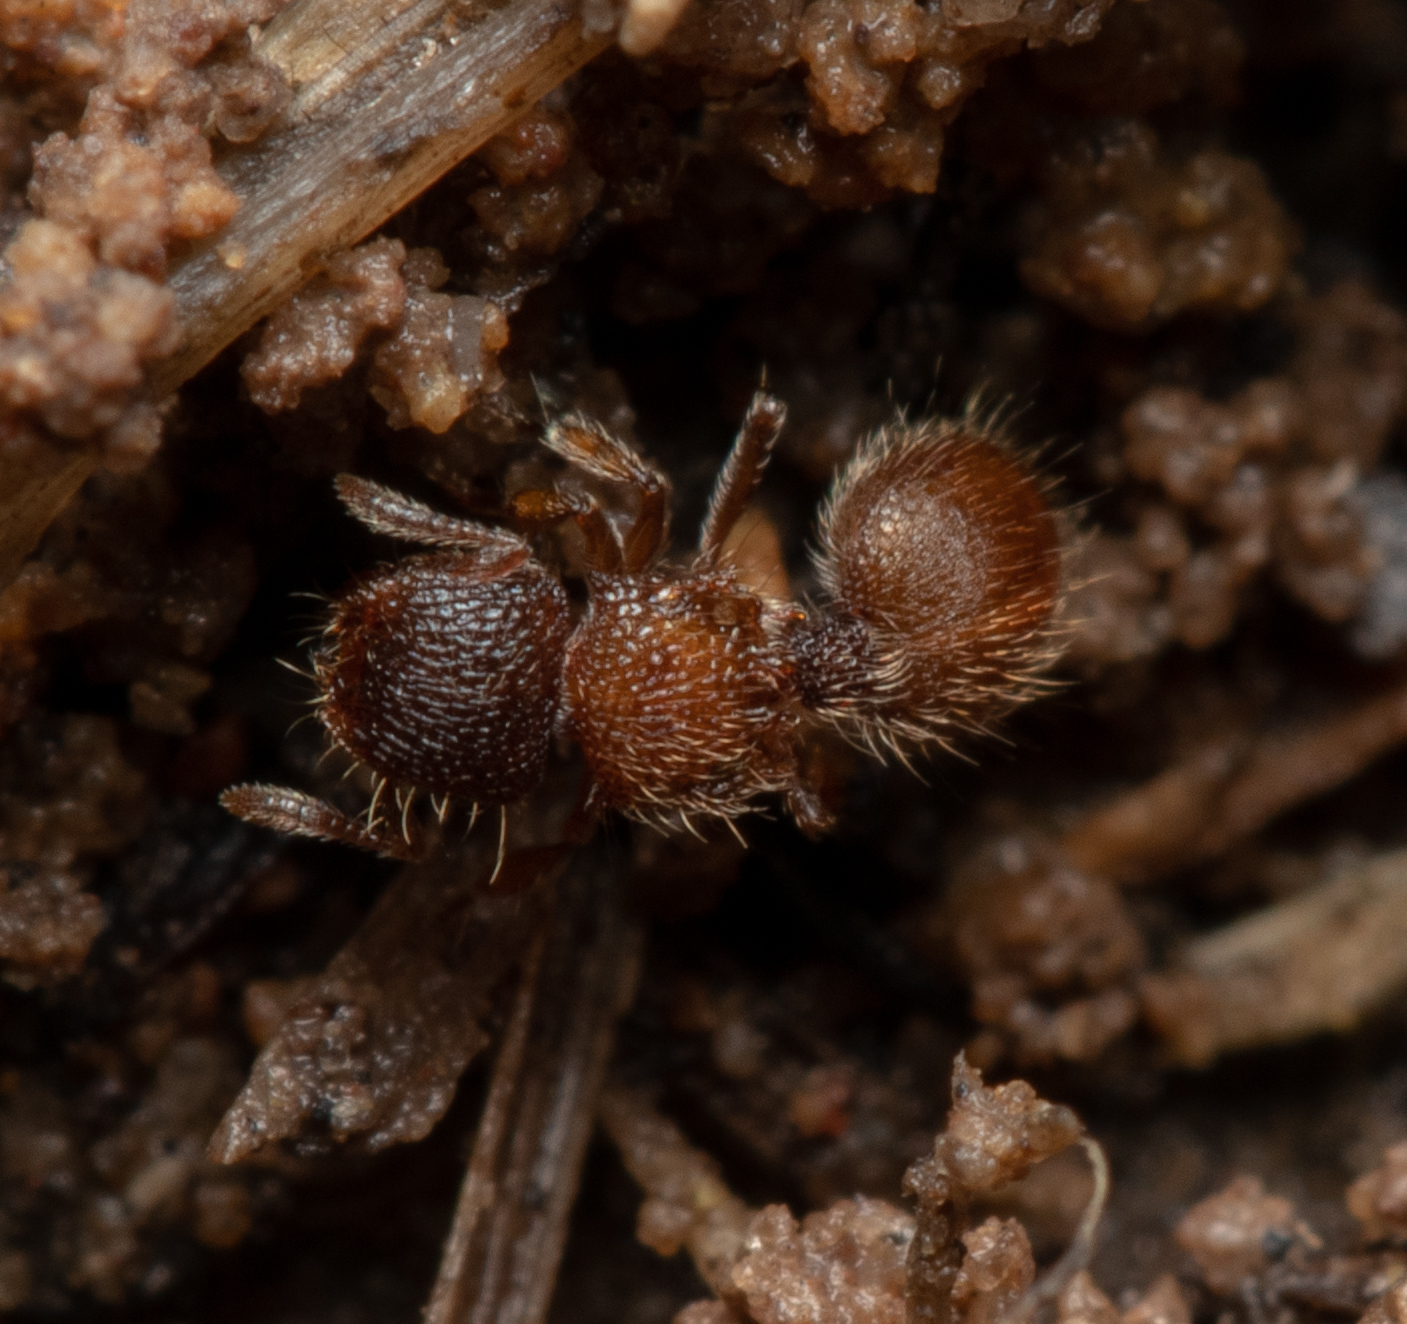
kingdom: Animalia
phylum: Arthropoda
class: Insecta
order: Hymenoptera
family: Formicidae
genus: Meranoplus
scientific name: Meranoplus froggatti
